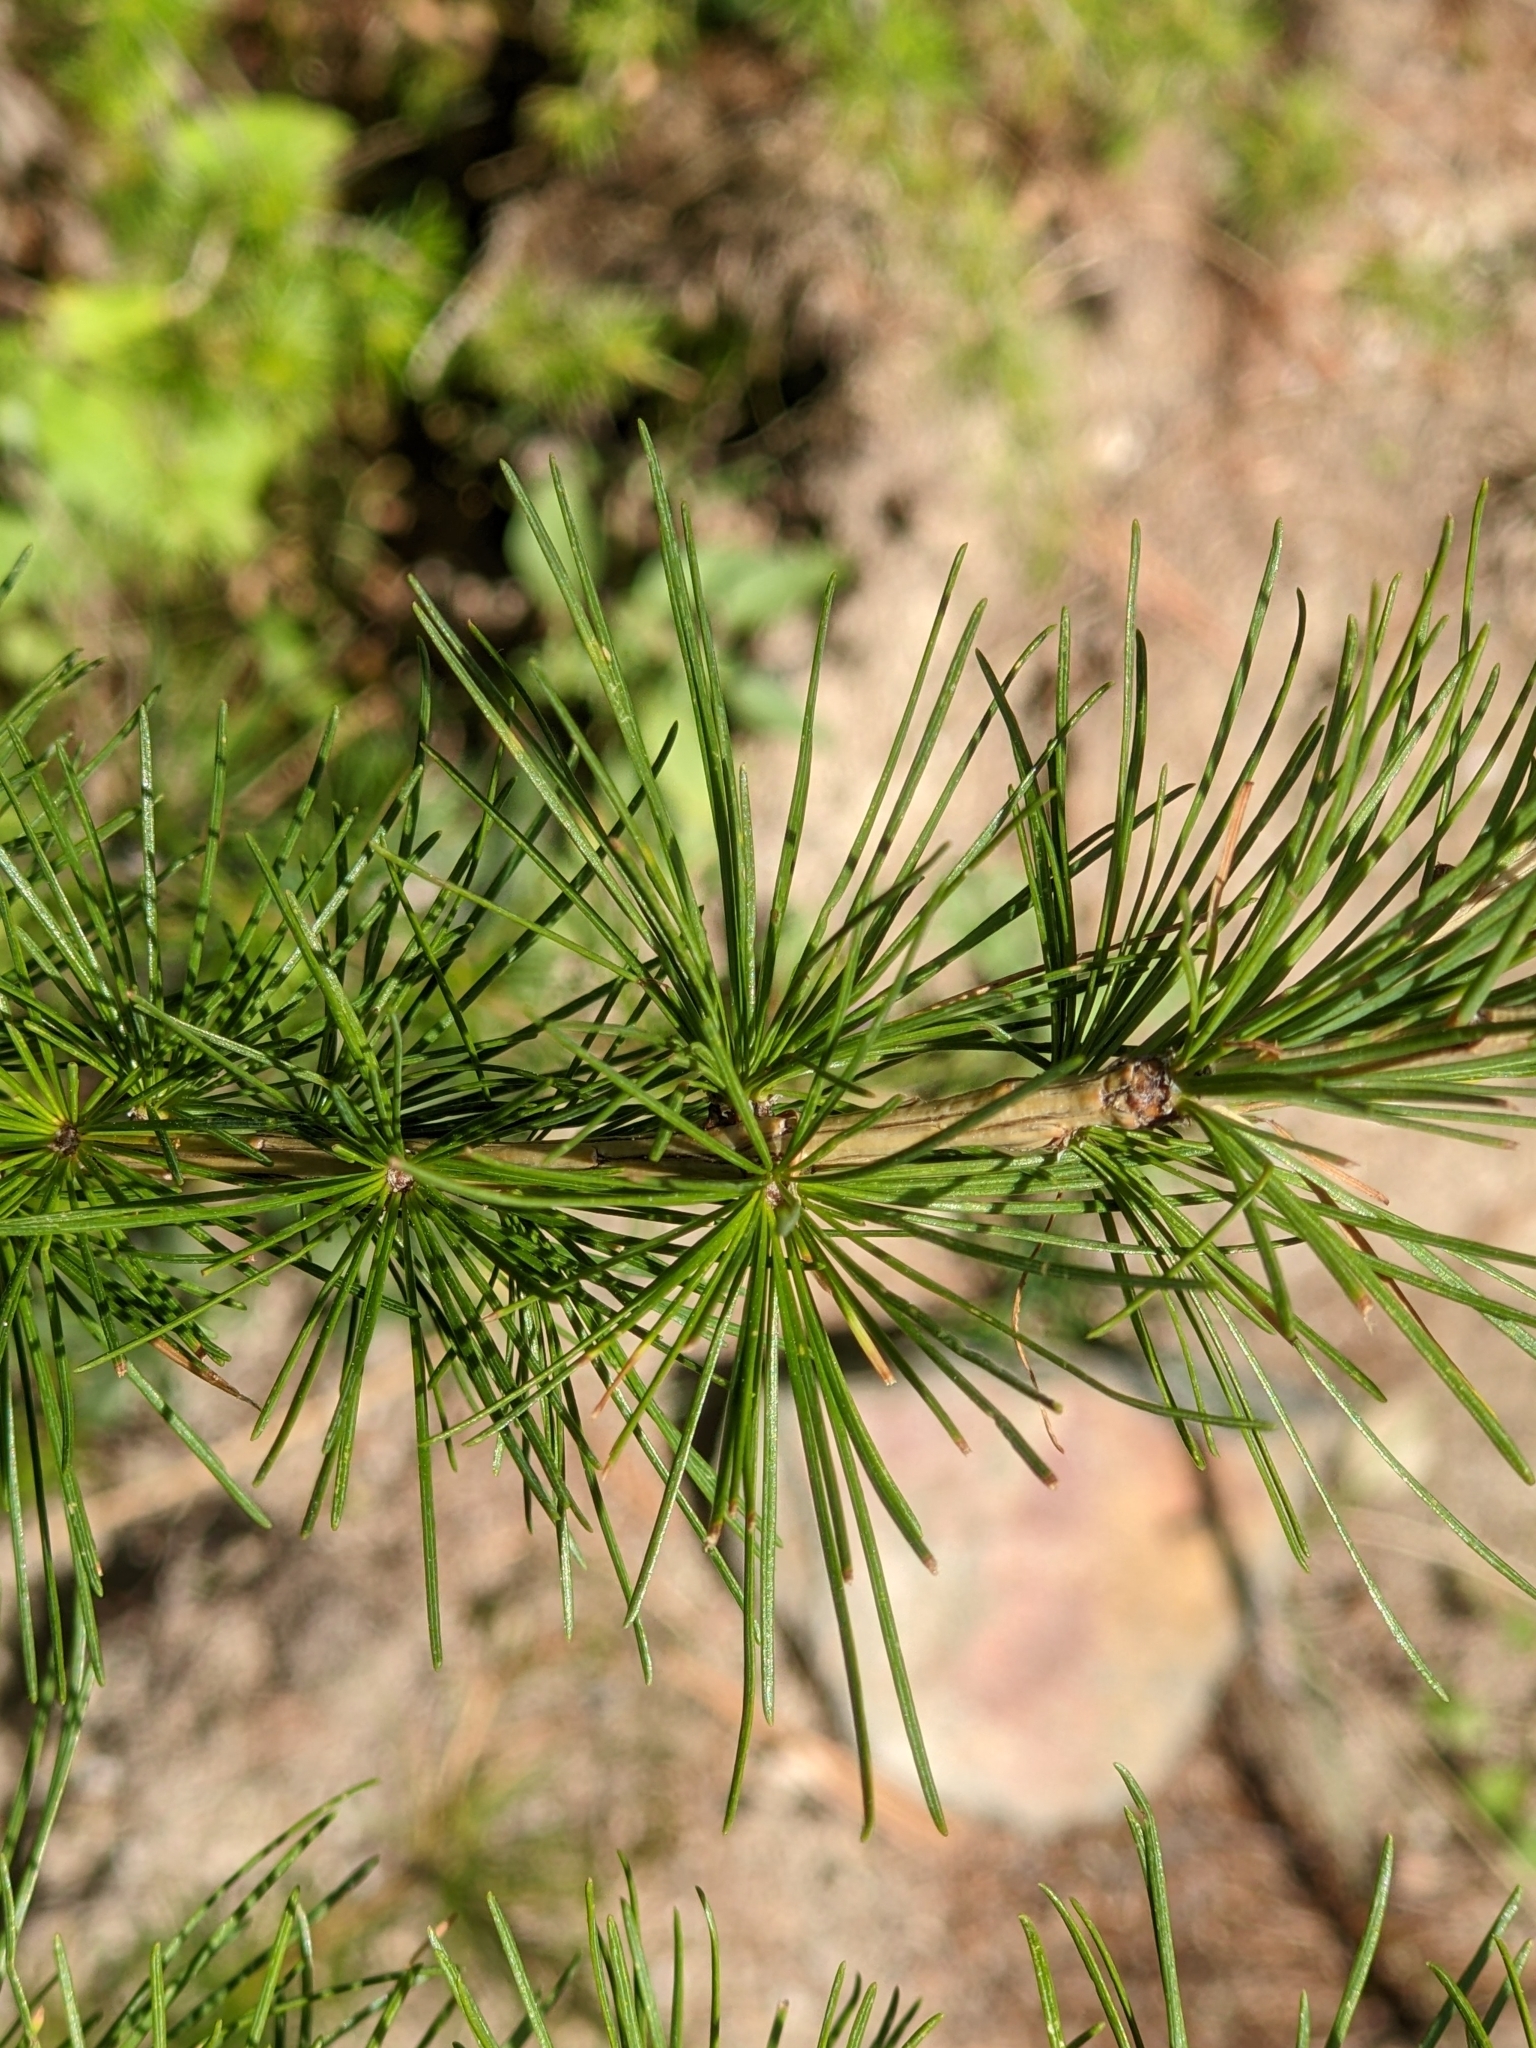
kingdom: Plantae
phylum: Tracheophyta
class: Pinopsida
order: Pinales
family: Pinaceae
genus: Larix
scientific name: Larix decidua
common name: European larch
